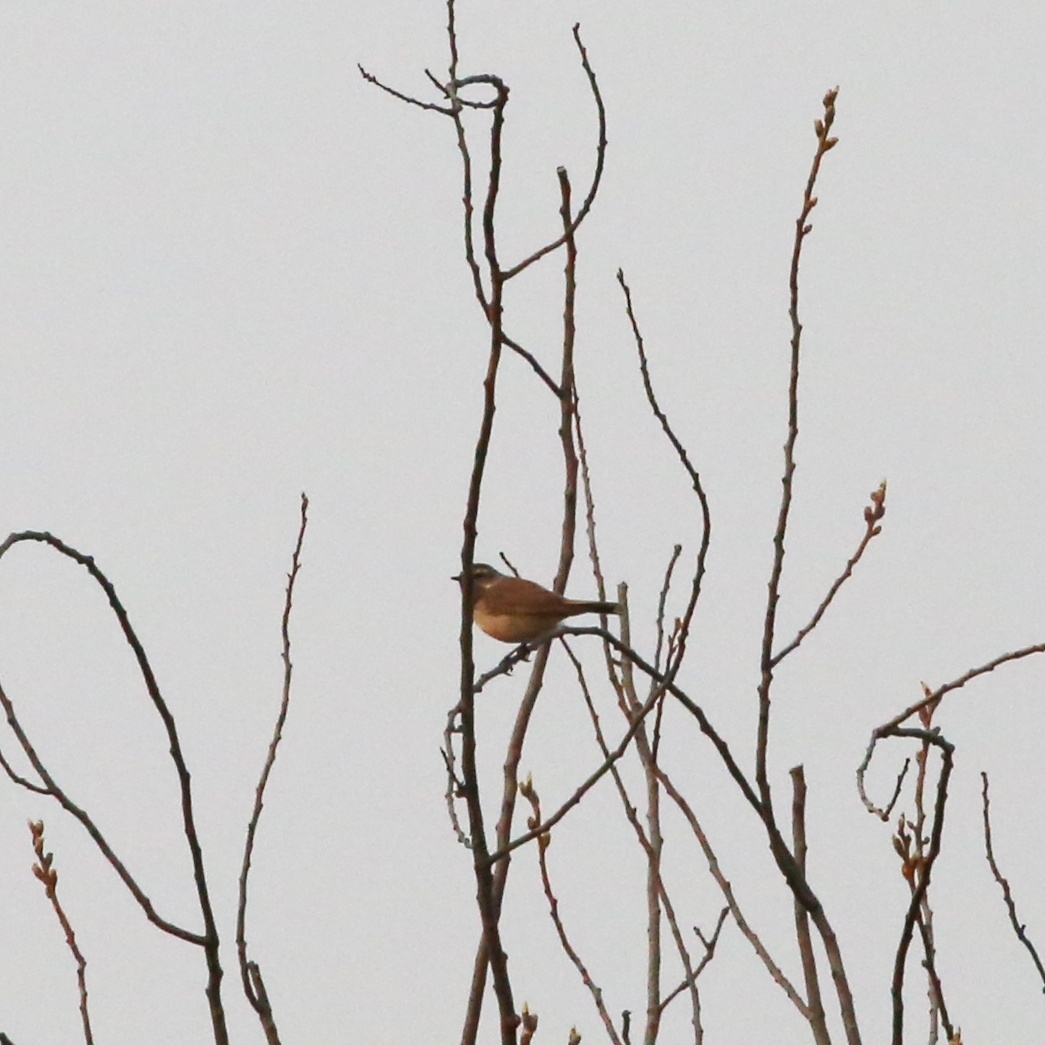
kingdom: Animalia
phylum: Chordata
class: Aves
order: Passeriformes
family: Muscicapidae
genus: Luscinia
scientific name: Luscinia svecica
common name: Bluethroat
